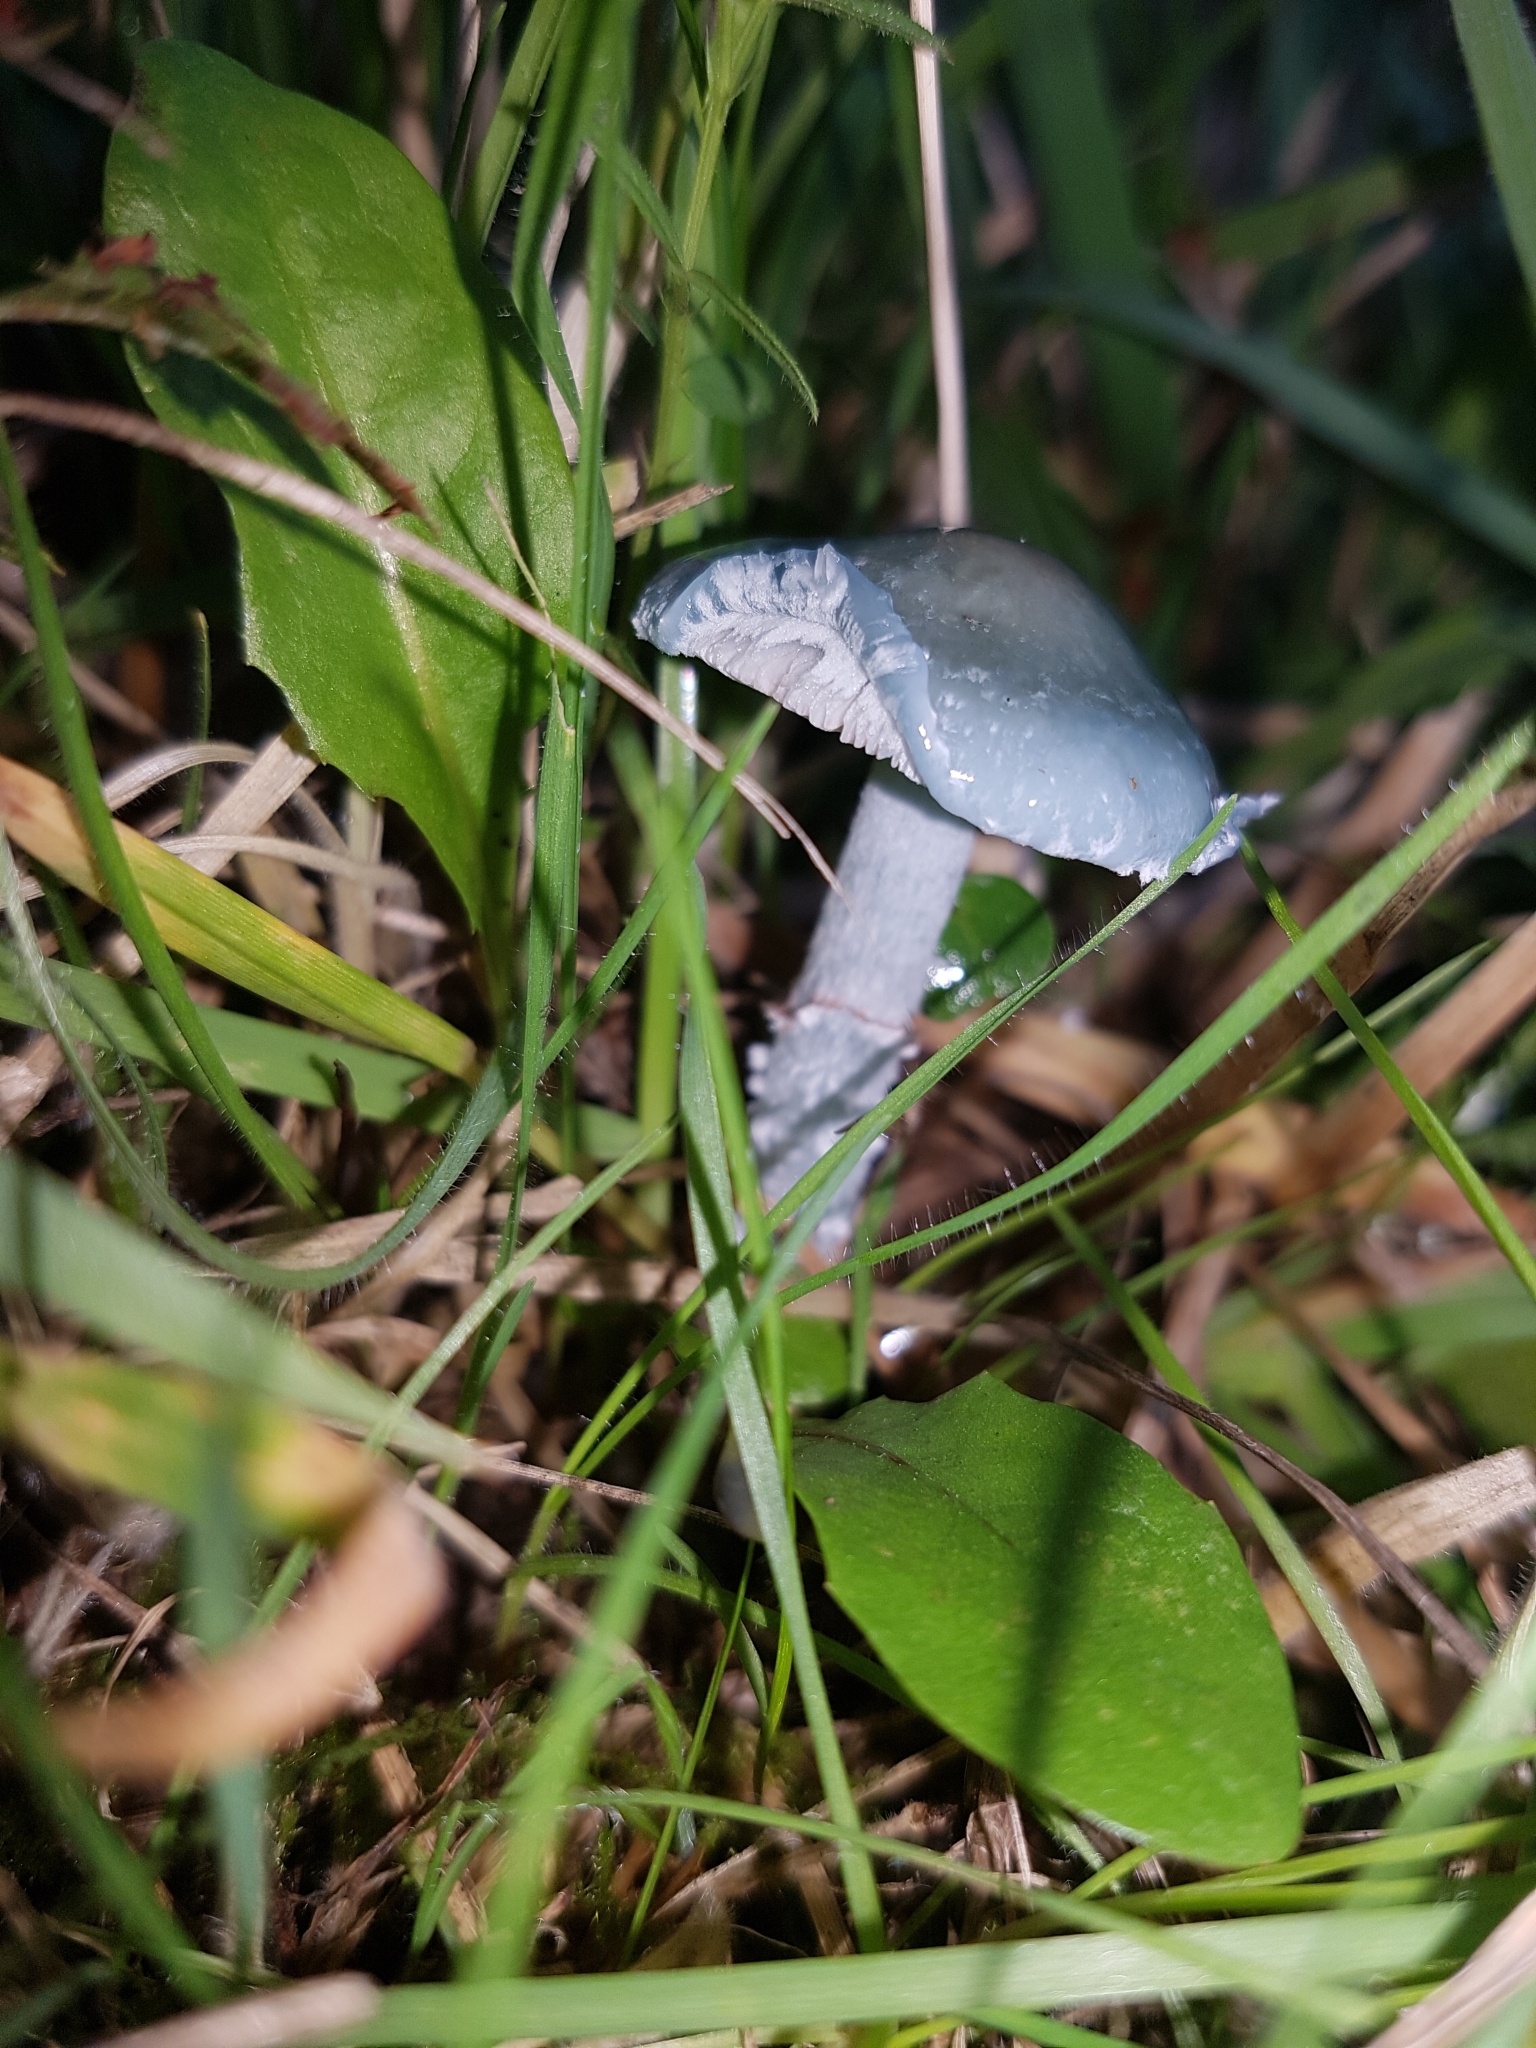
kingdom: Fungi
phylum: Basidiomycota
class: Agaricomycetes
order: Agaricales
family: Strophariaceae
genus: Stropharia
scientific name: Stropharia caerulea
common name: Blue roundhead
